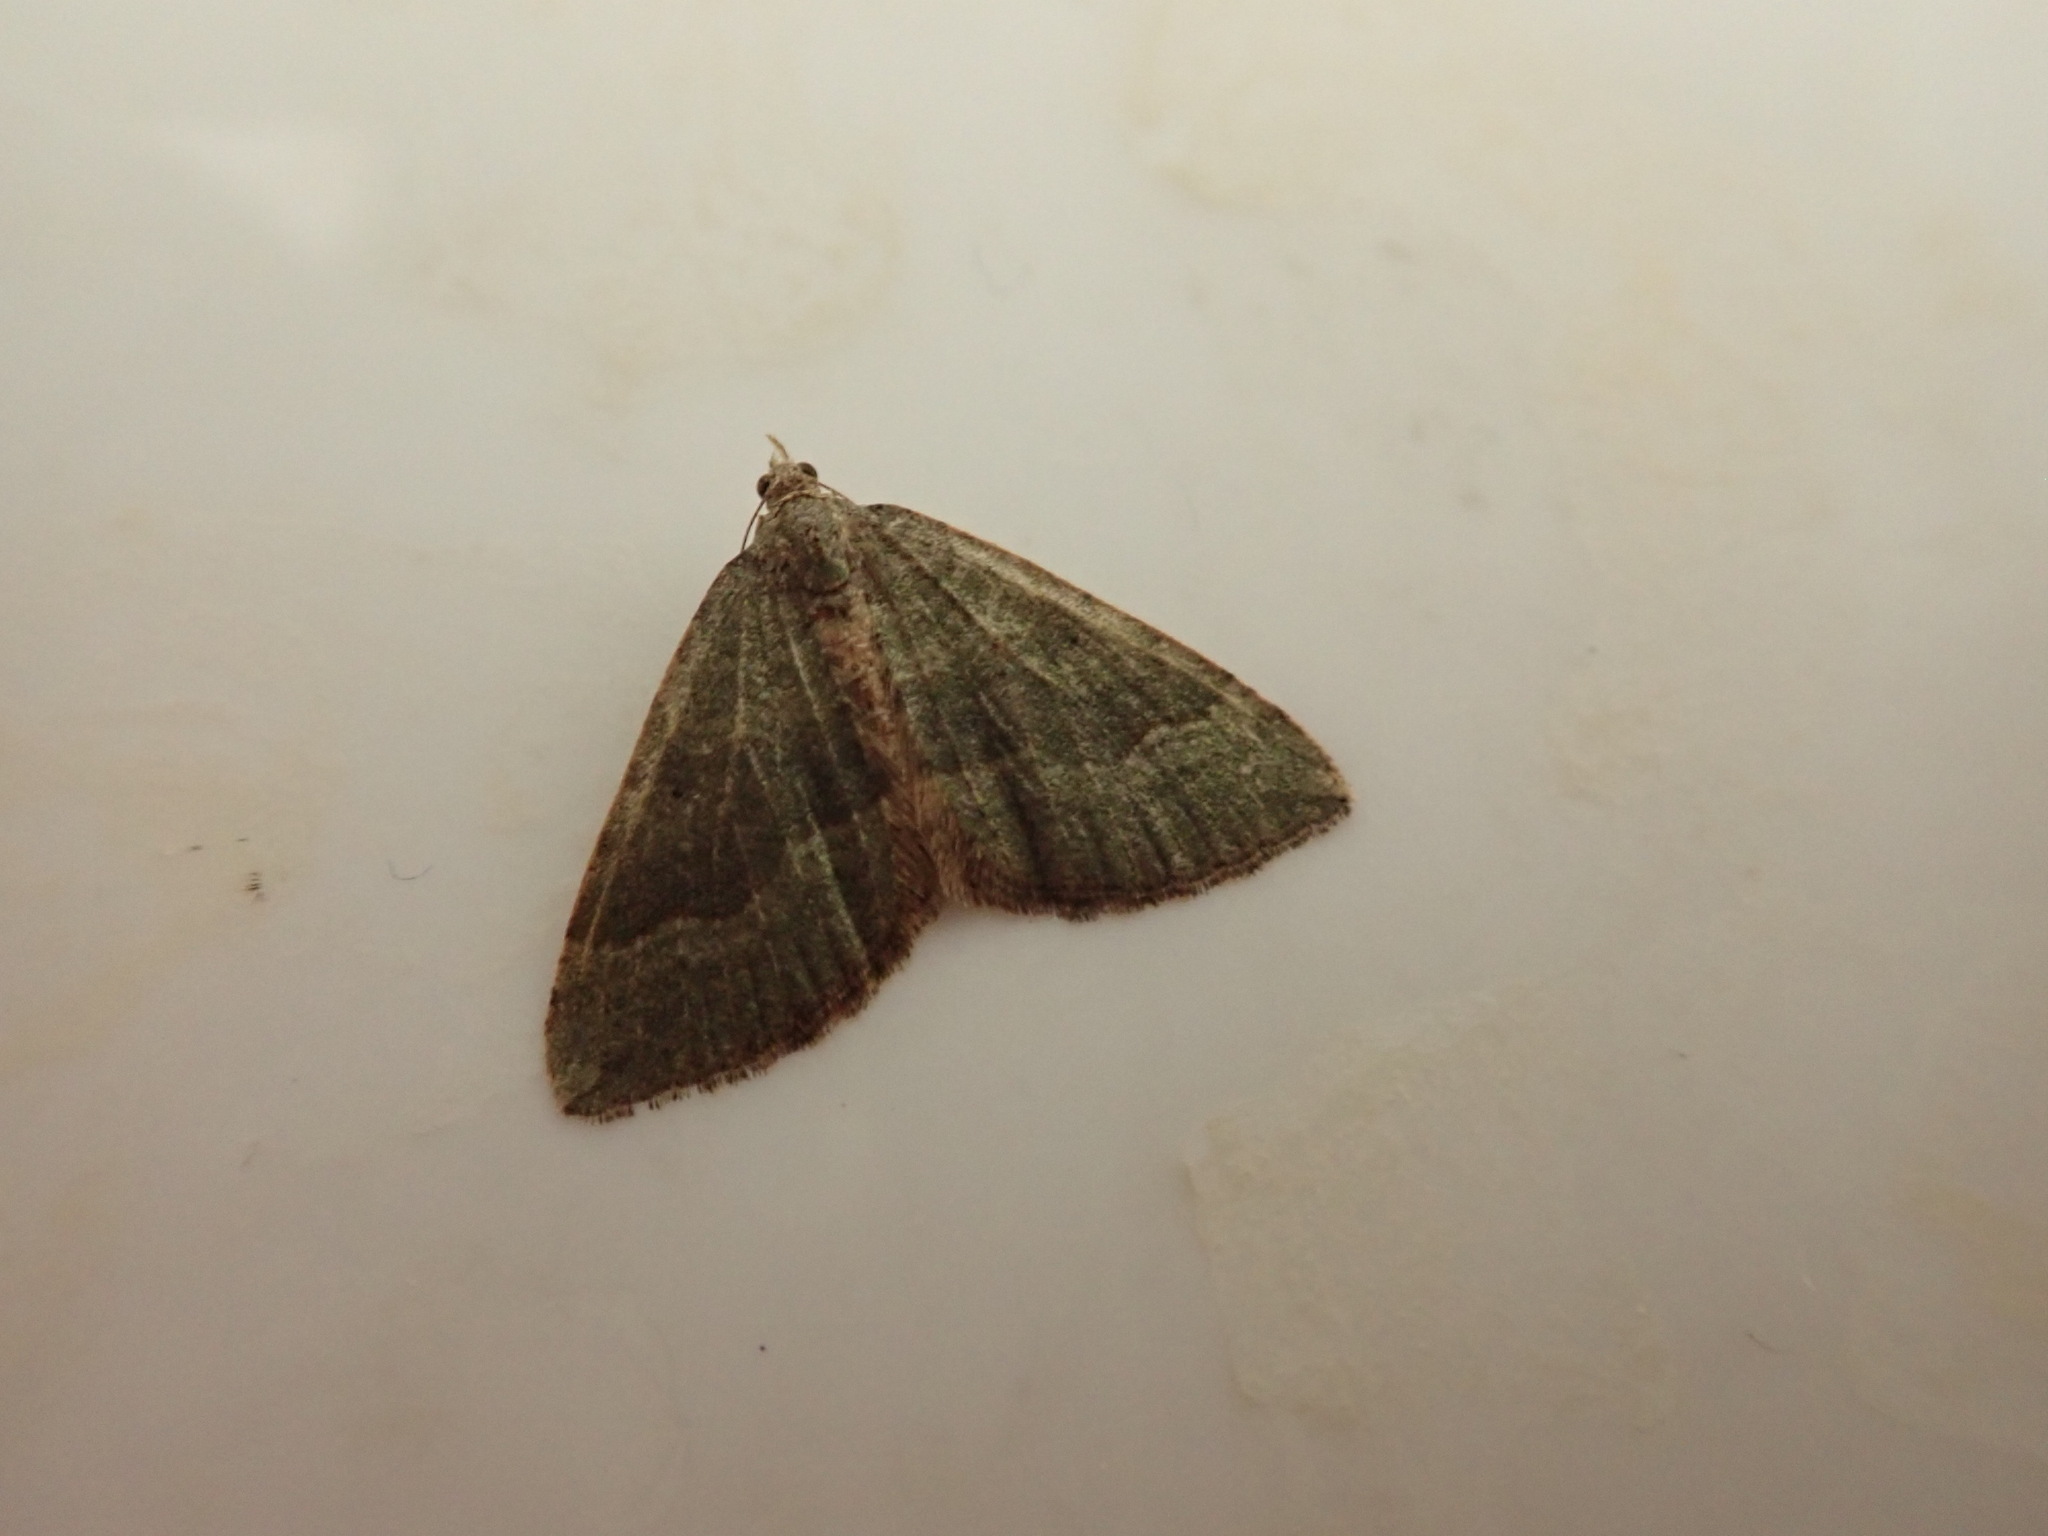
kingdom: Animalia
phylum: Arthropoda
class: Insecta
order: Lepidoptera
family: Geometridae
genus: Epyaxa
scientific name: Epyaxa rosearia
